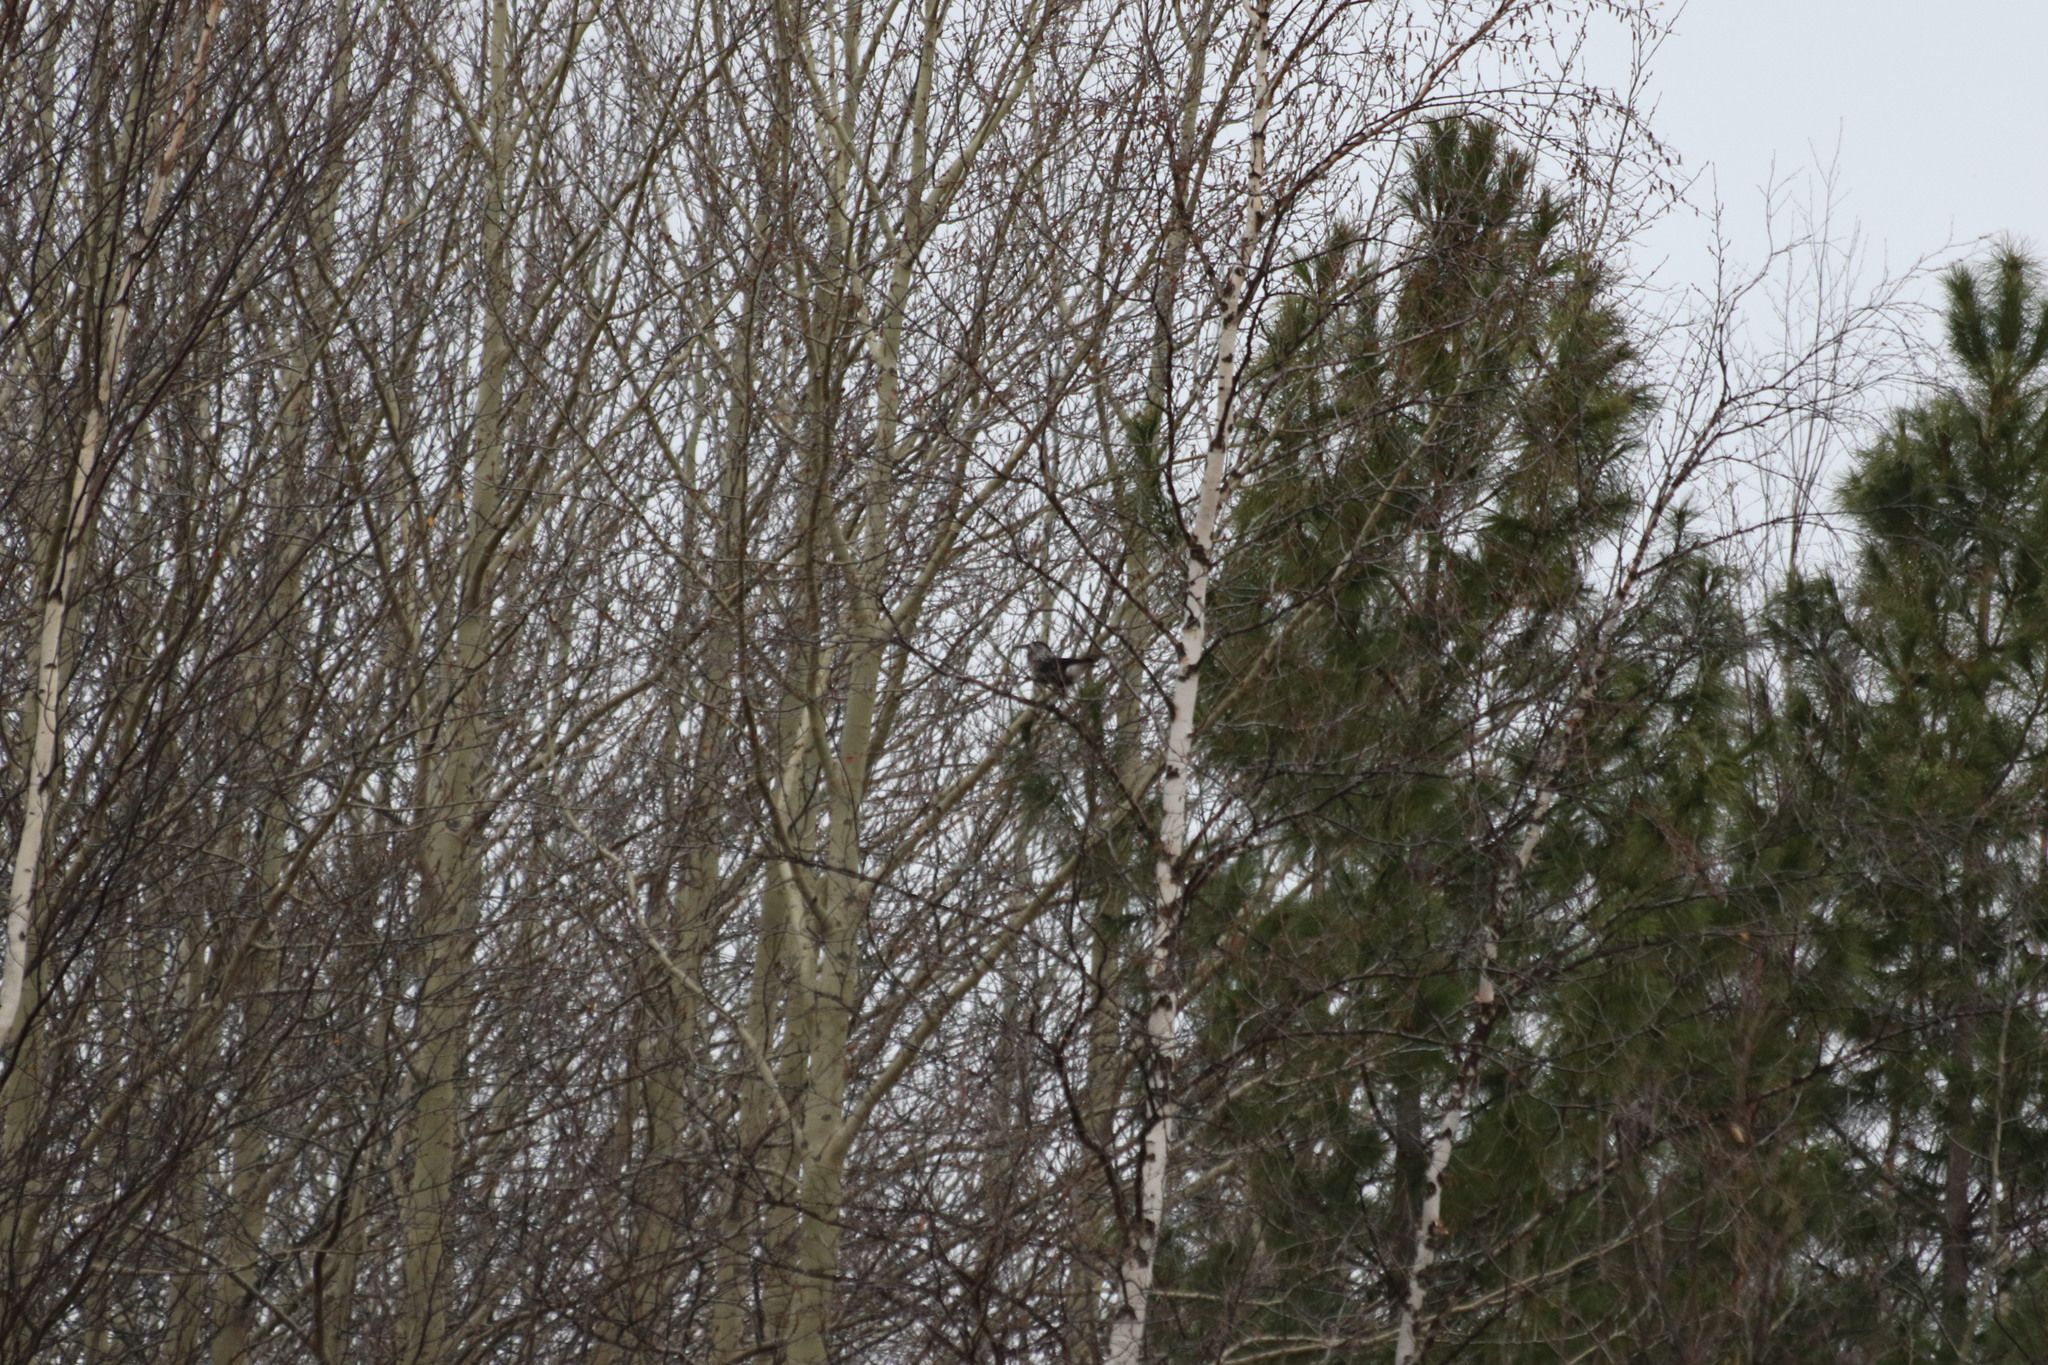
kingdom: Animalia
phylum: Chordata
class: Aves
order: Passeriformes
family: Corvidae
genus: Nucifraga
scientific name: Nucifraga caryocatactes
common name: Spotted nutcracker
